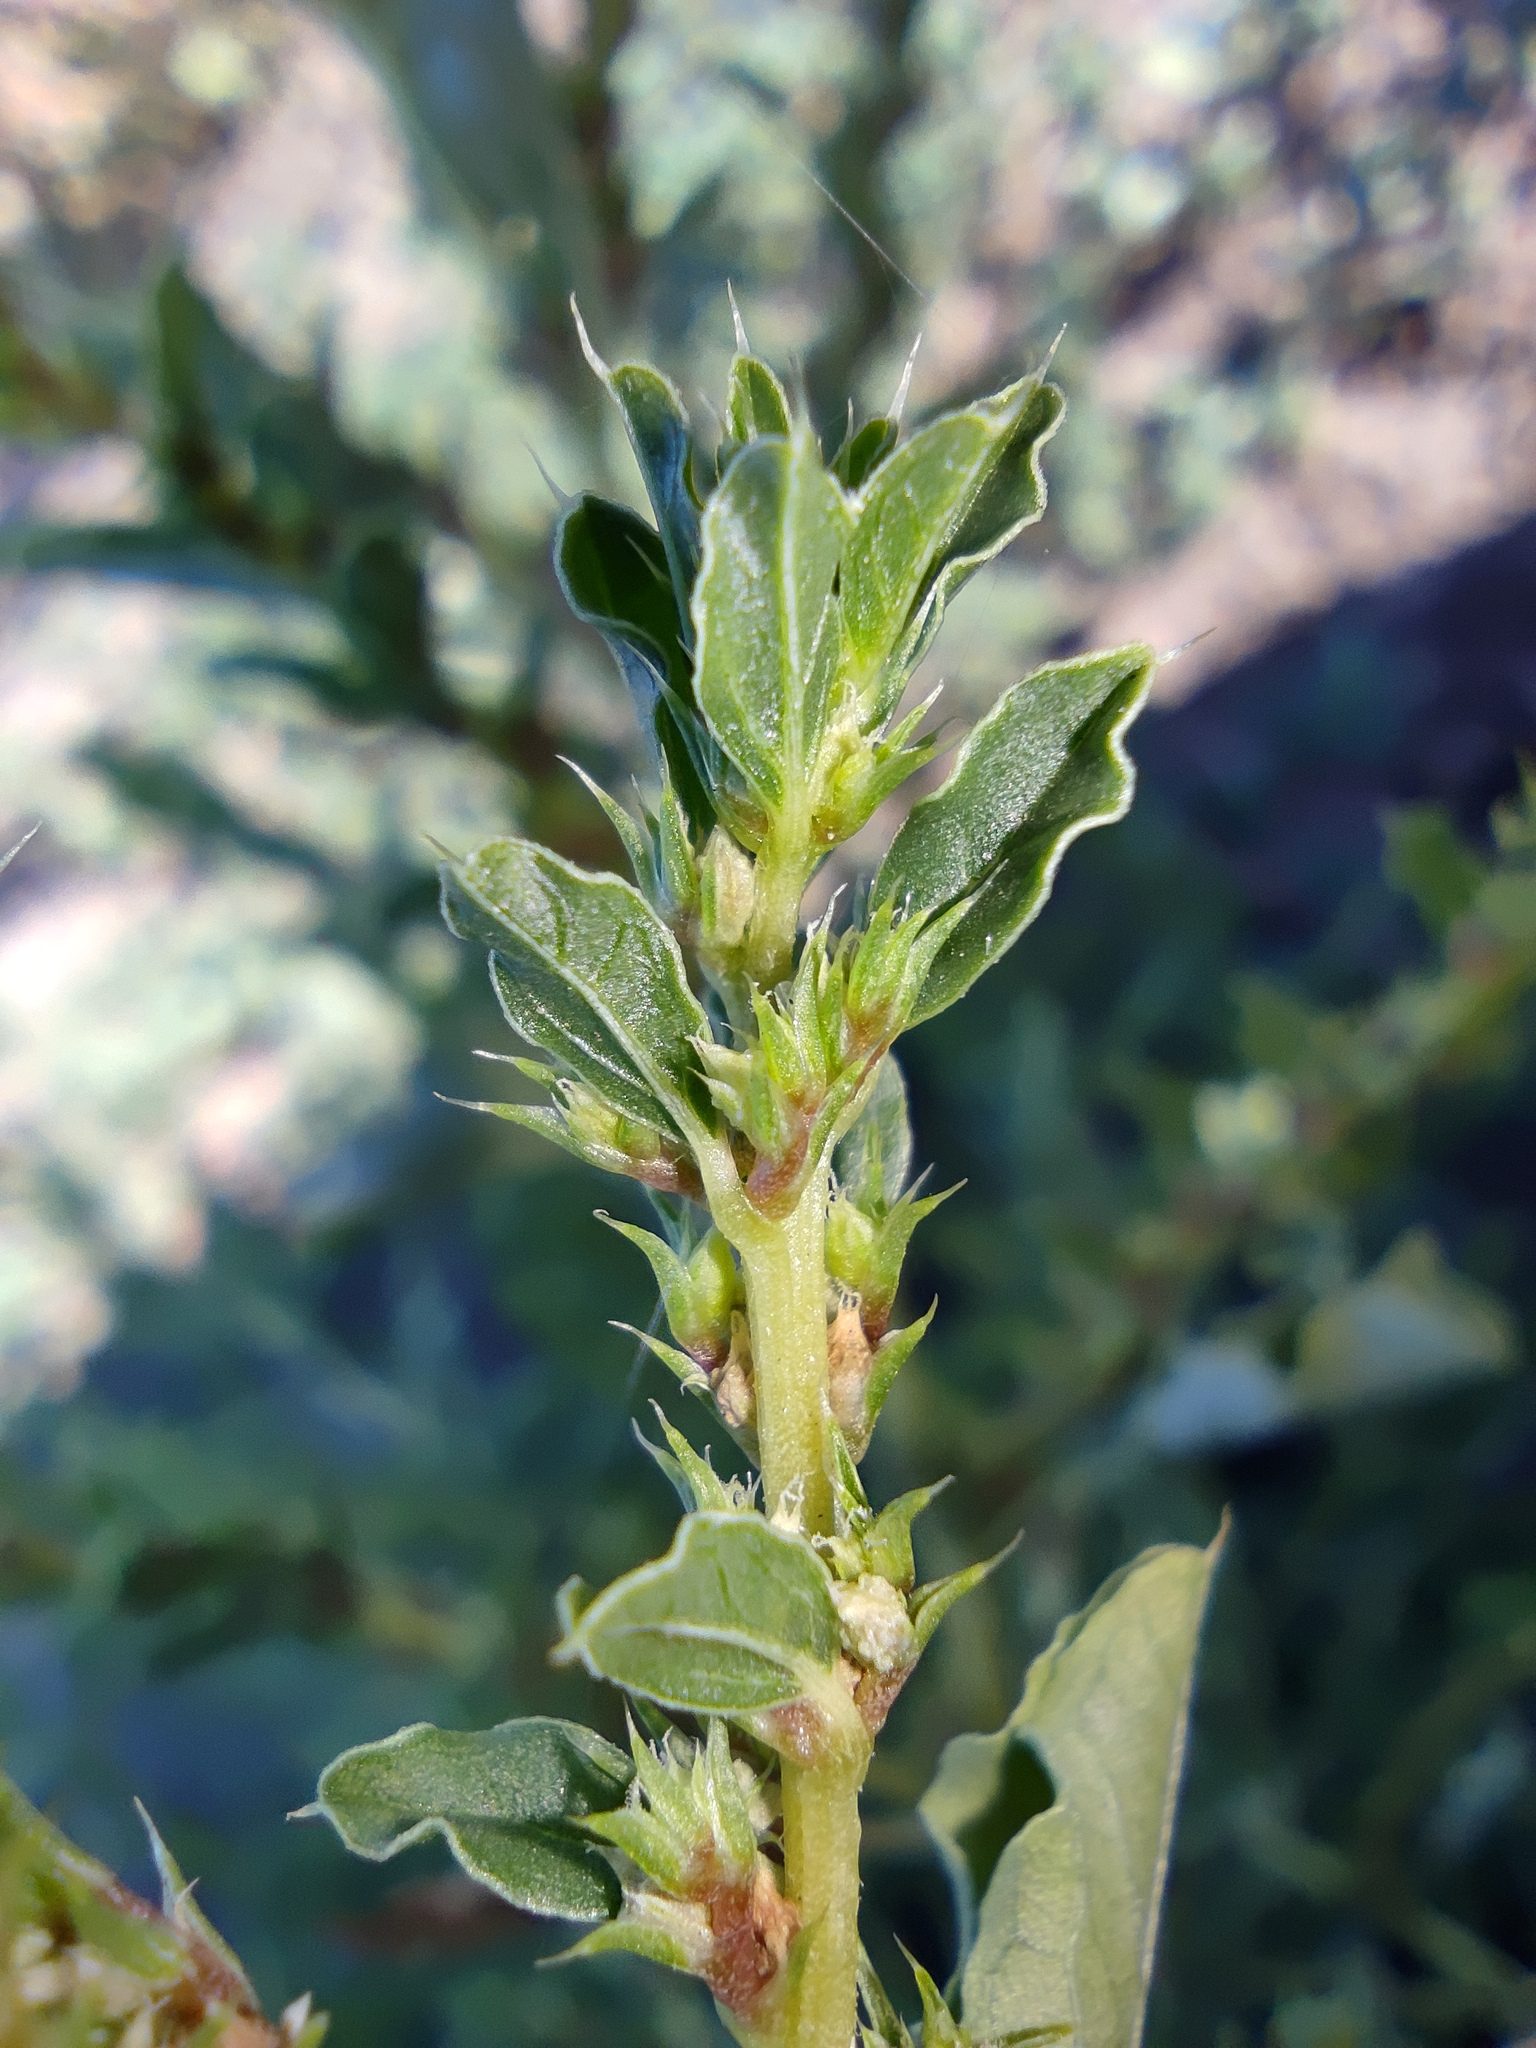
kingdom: Plantae
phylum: Tracheophyta
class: Magnoliopsida
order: Caryophyllales
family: Amaranthaceae
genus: Amaranthus
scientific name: Amaranthus albus
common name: White pigweed
